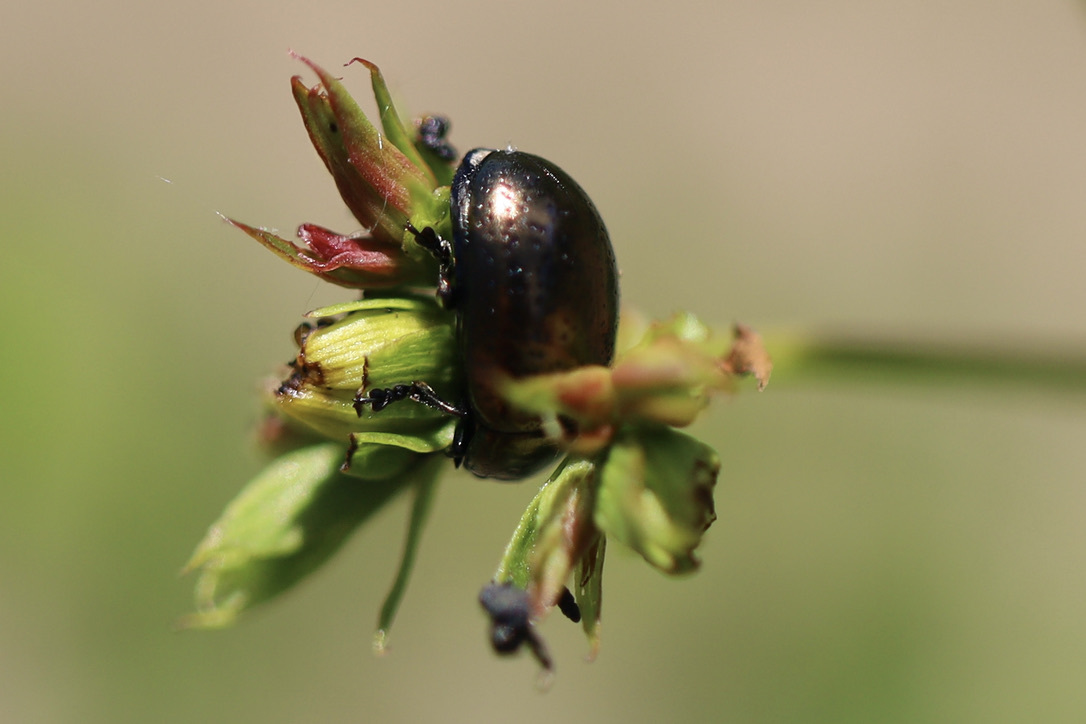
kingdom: Animalia
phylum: Arthropoda
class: Insecta
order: Coleoptera
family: Chrysomelidae
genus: Chrysolina
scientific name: Chrysolina hyperici
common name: St. johnswort beetle
